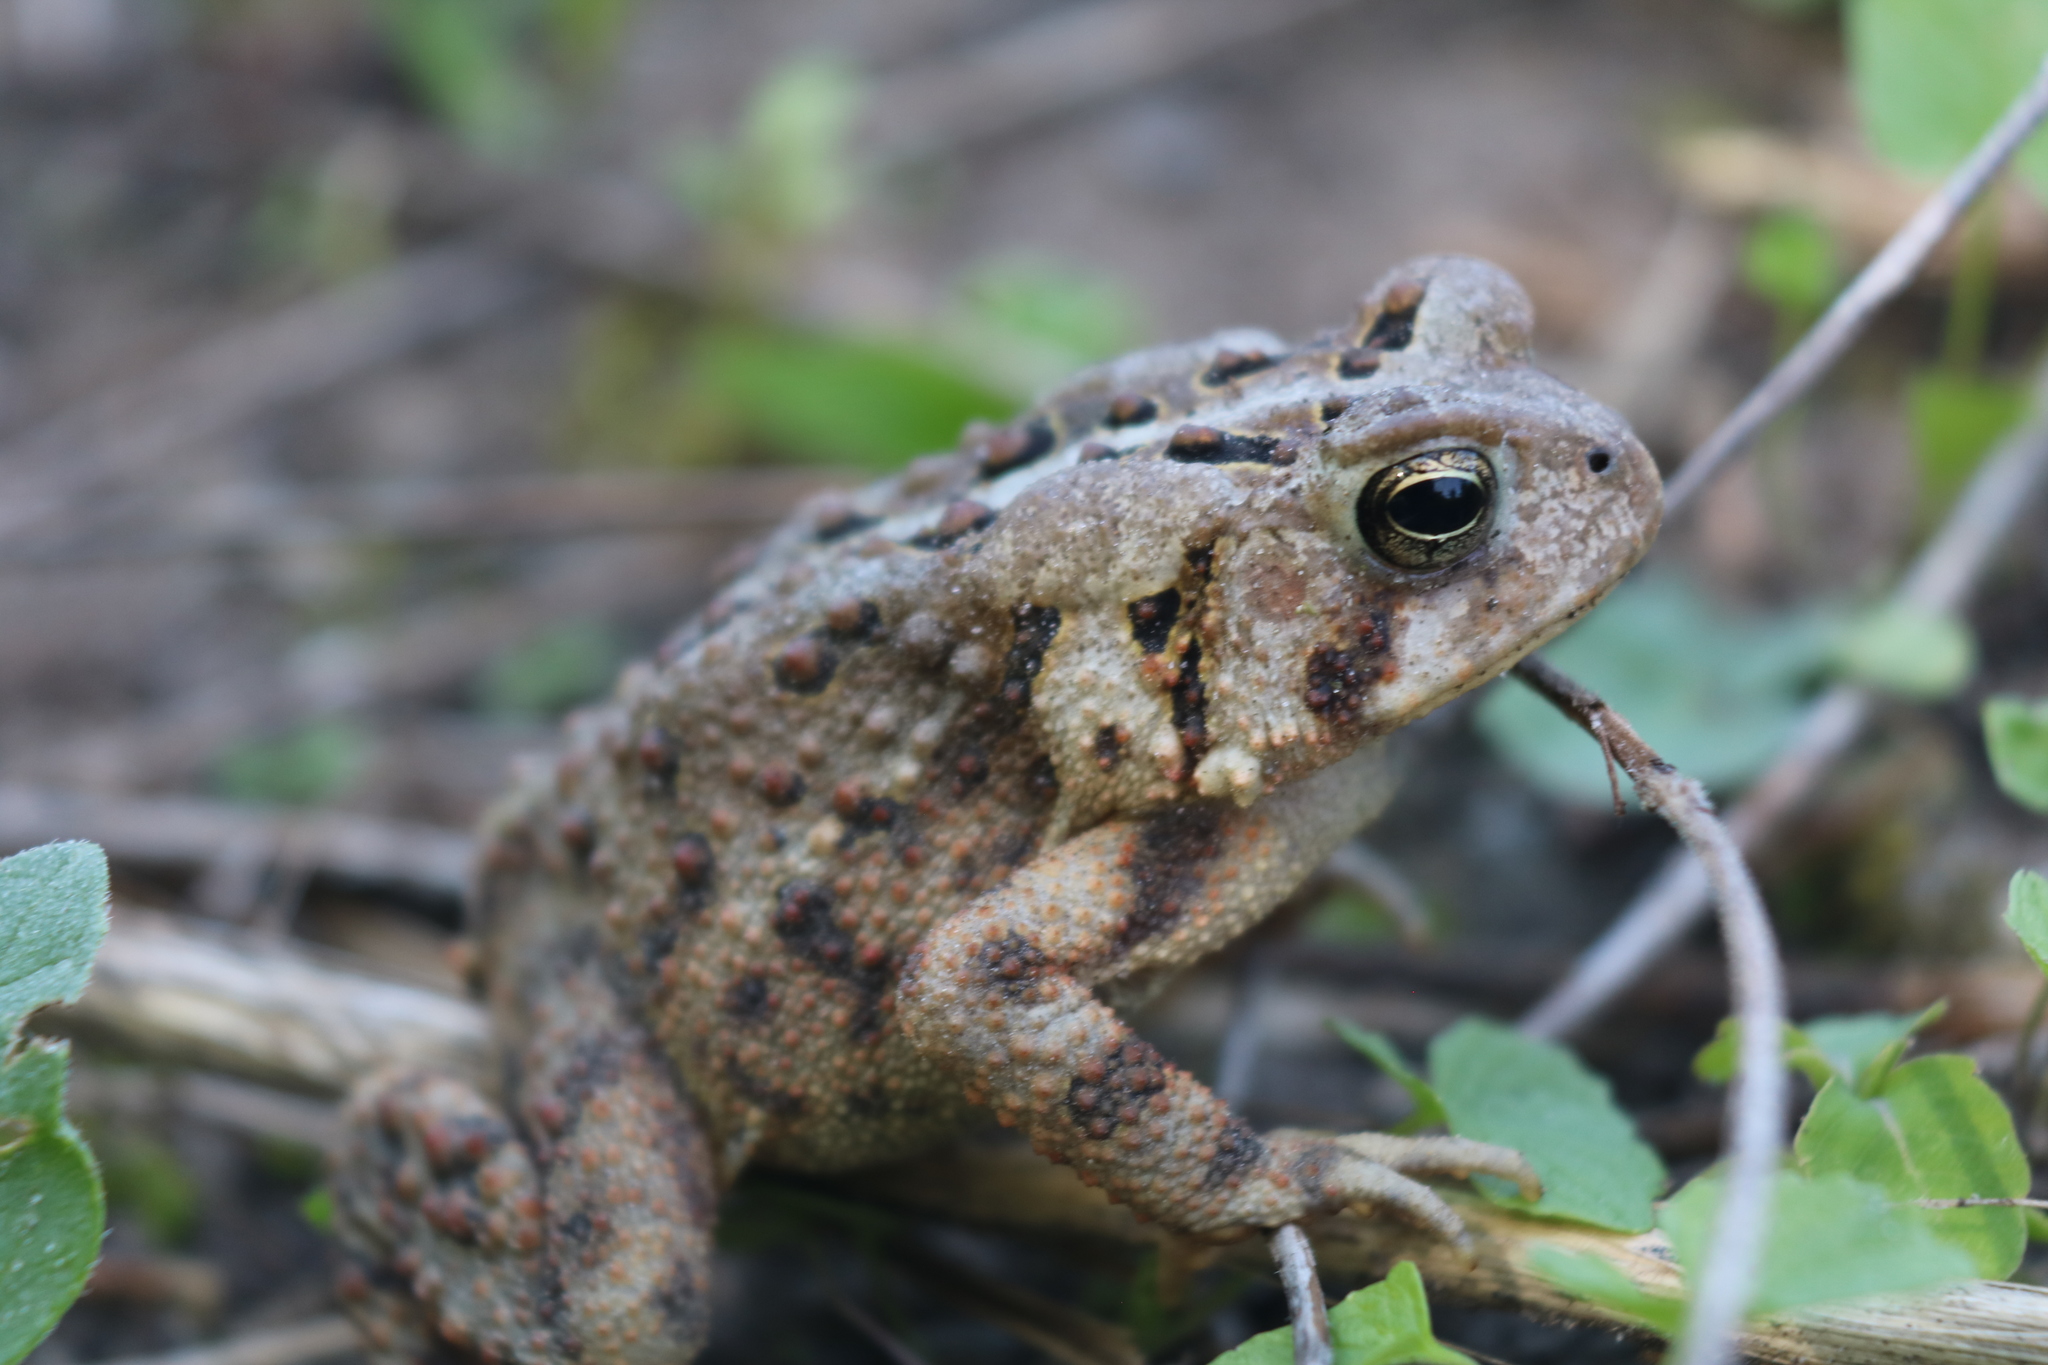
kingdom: Animalia
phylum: Chordata
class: Amphibia
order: Anura
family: Bufonidae
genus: Anaxyrus
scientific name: Anaxyrus americanus
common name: American toad
